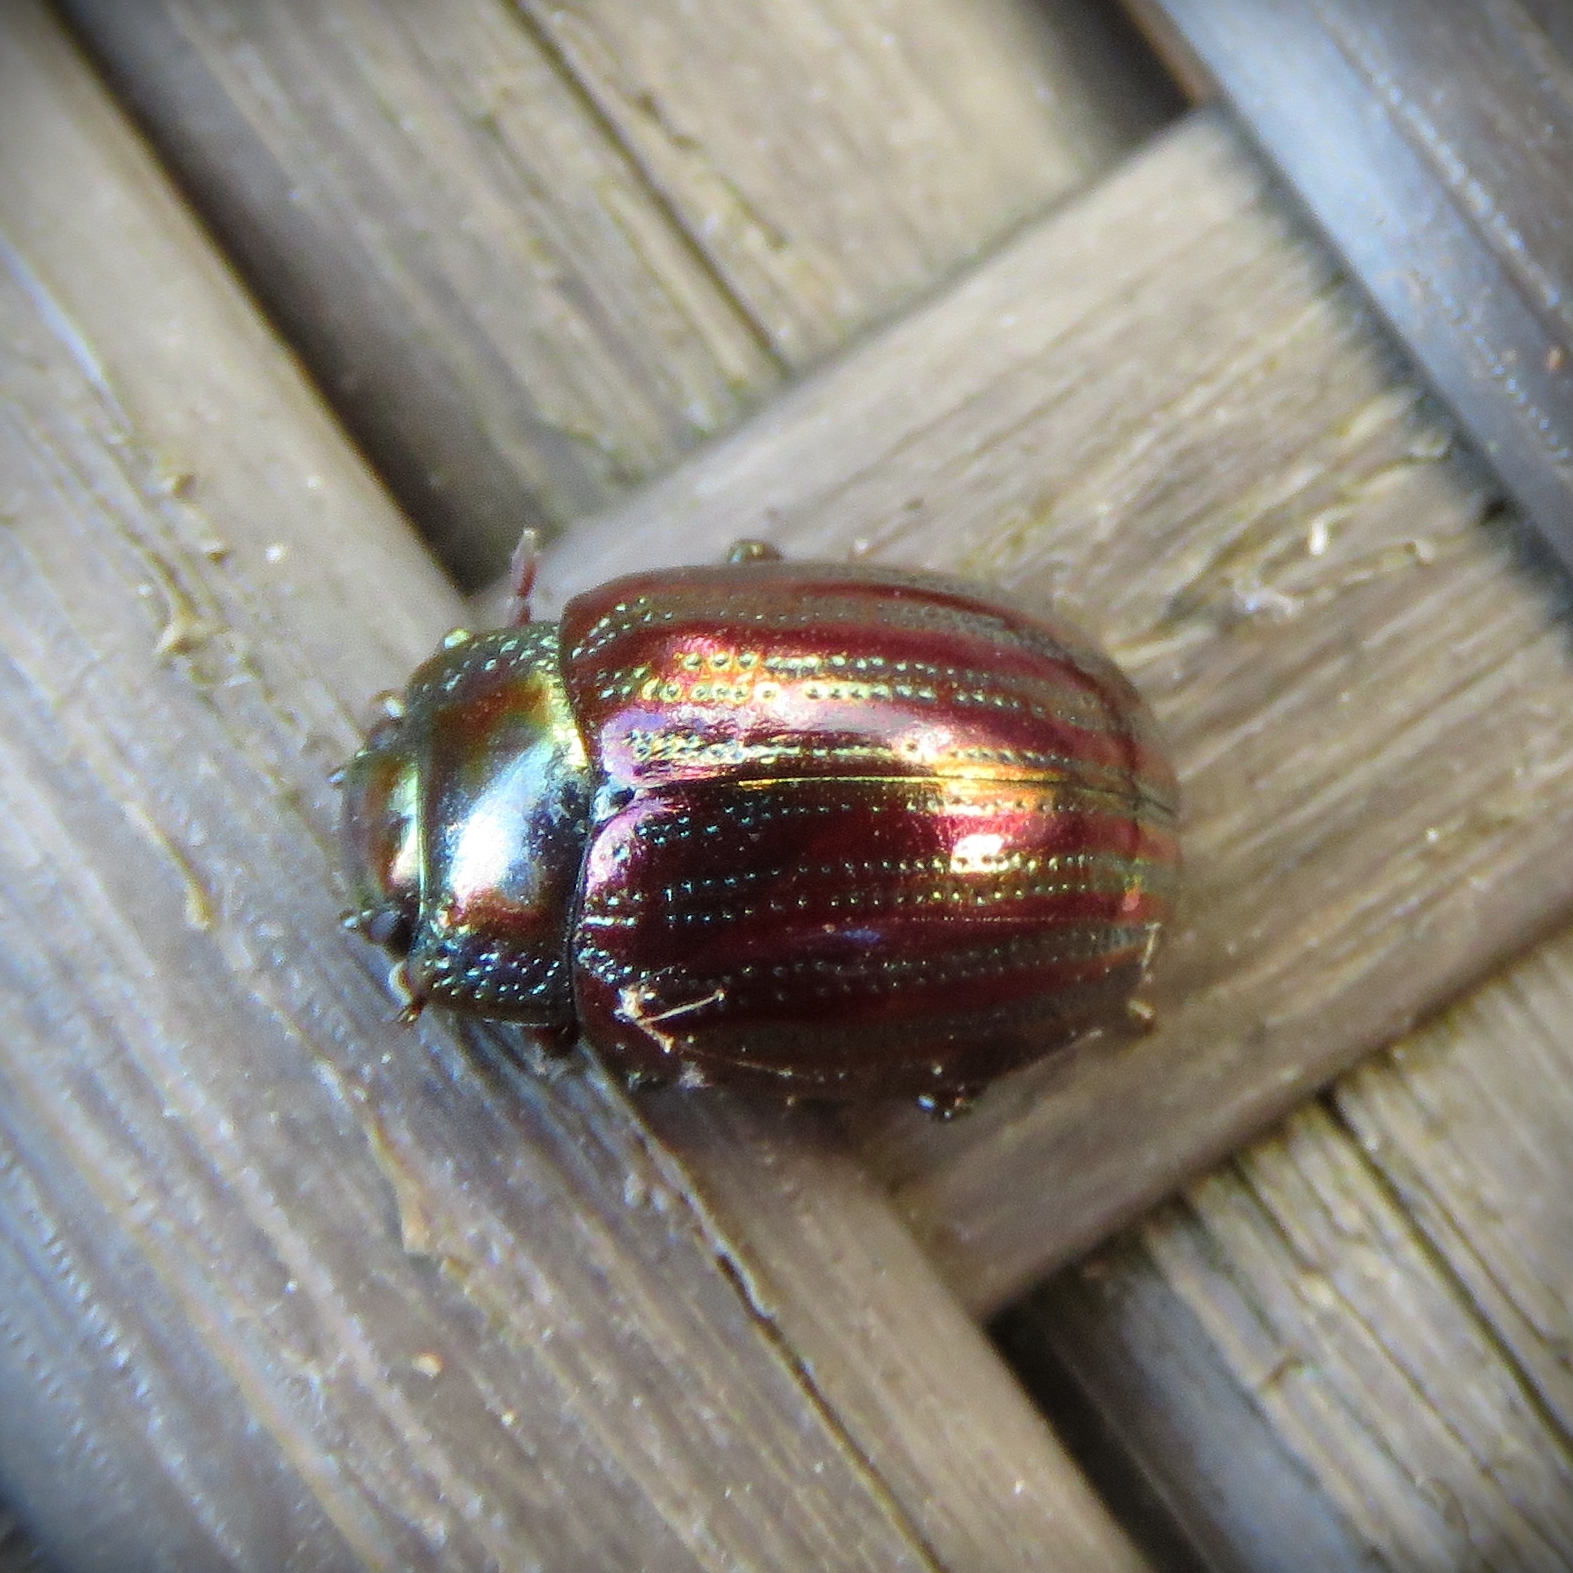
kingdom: Animalia
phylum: Arthropoda
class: Insecta
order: Coleoptera
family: Chrysomelidae
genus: Chrysolina
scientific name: Chrysolina americana
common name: Rosemary beetle
